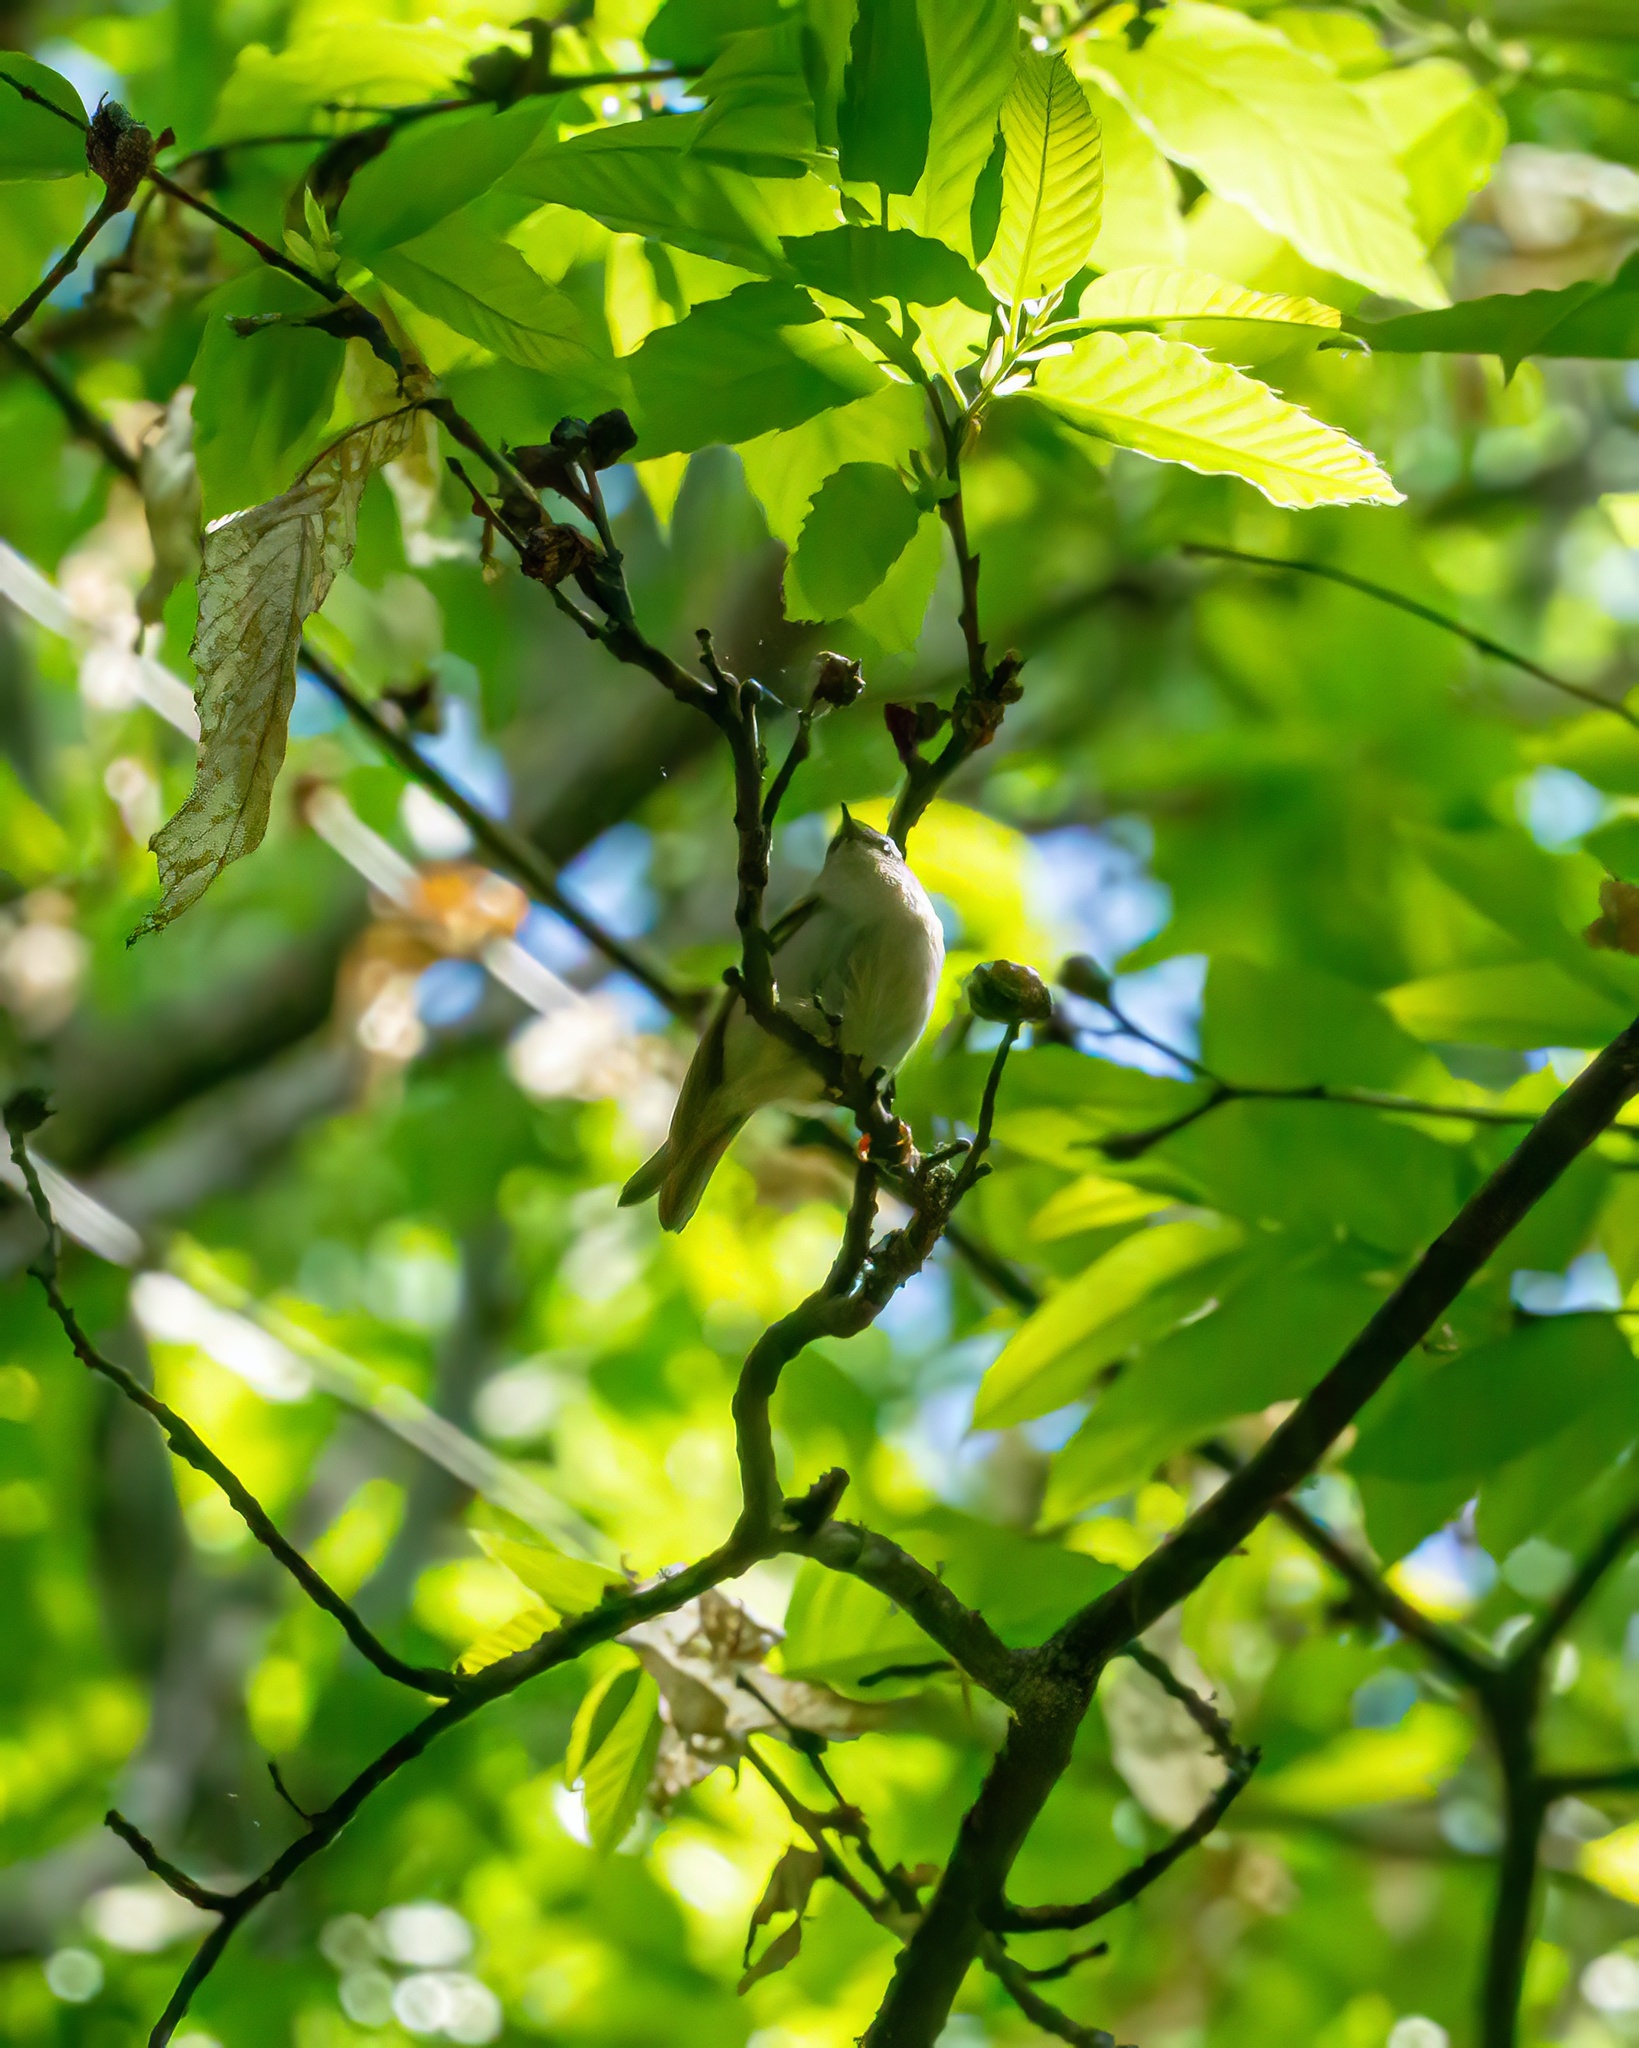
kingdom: Animalia
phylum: Chordata
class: Aves
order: Passeriformes
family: Regulidae
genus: Regulus
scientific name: Regulus ignicapilla
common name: Firecrest
